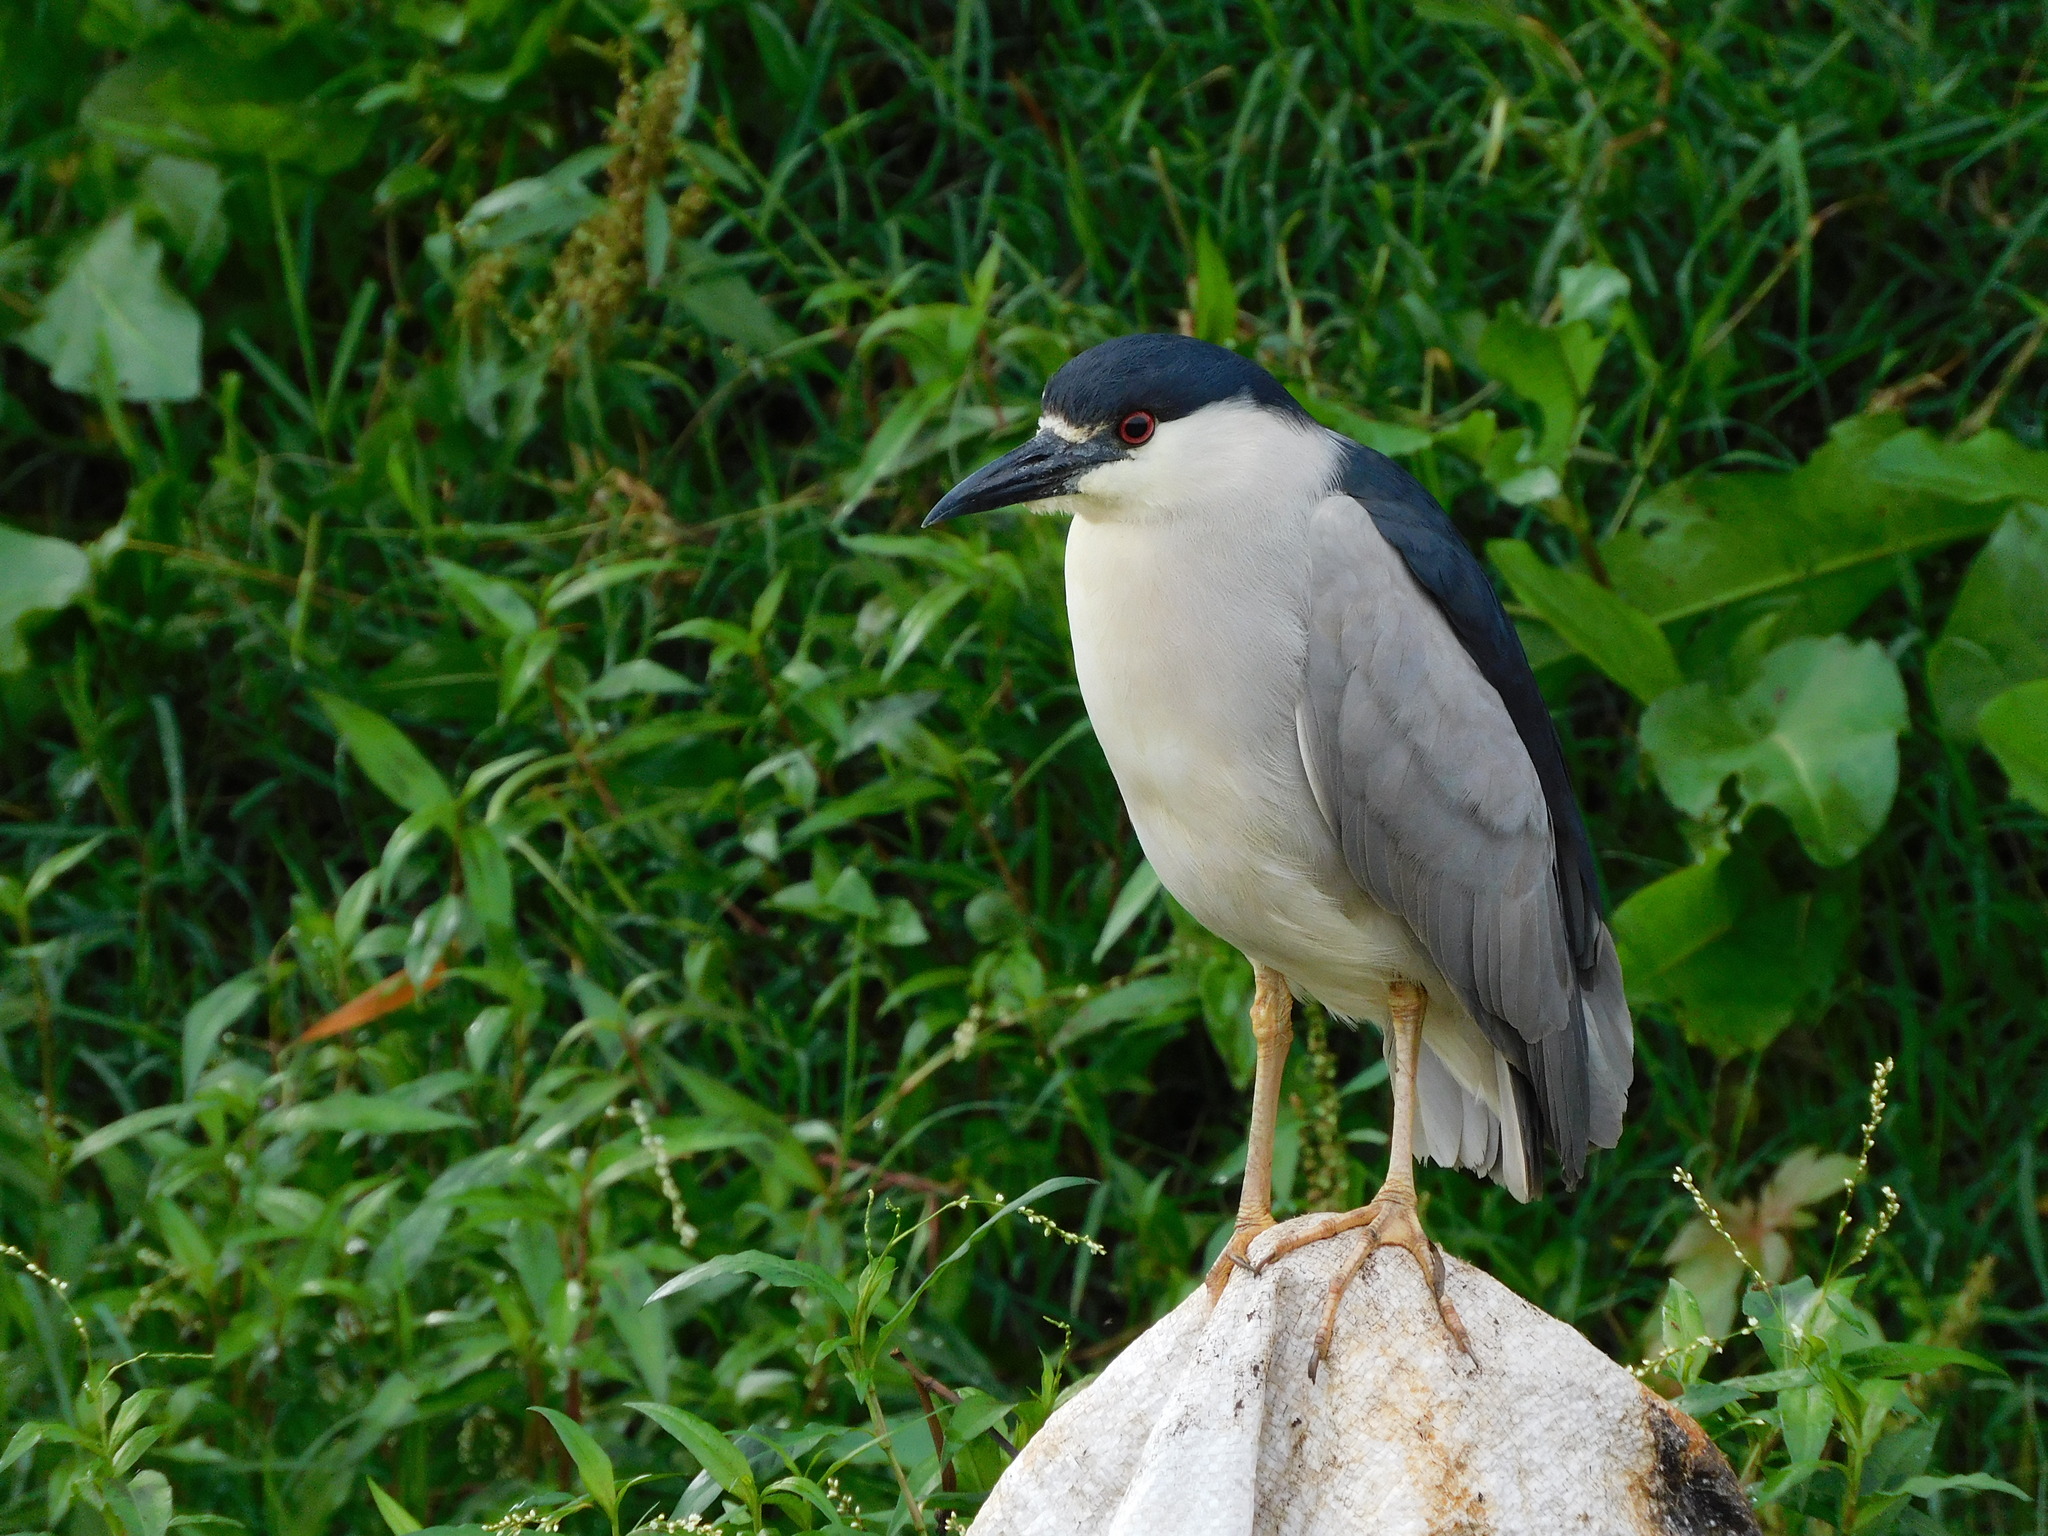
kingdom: Animalia
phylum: Chordata
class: Aves
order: Pelecaniformes
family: Ardeidae
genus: Nycticorax
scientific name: Nycticorax nycticorax
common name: Black-crowned night heron
